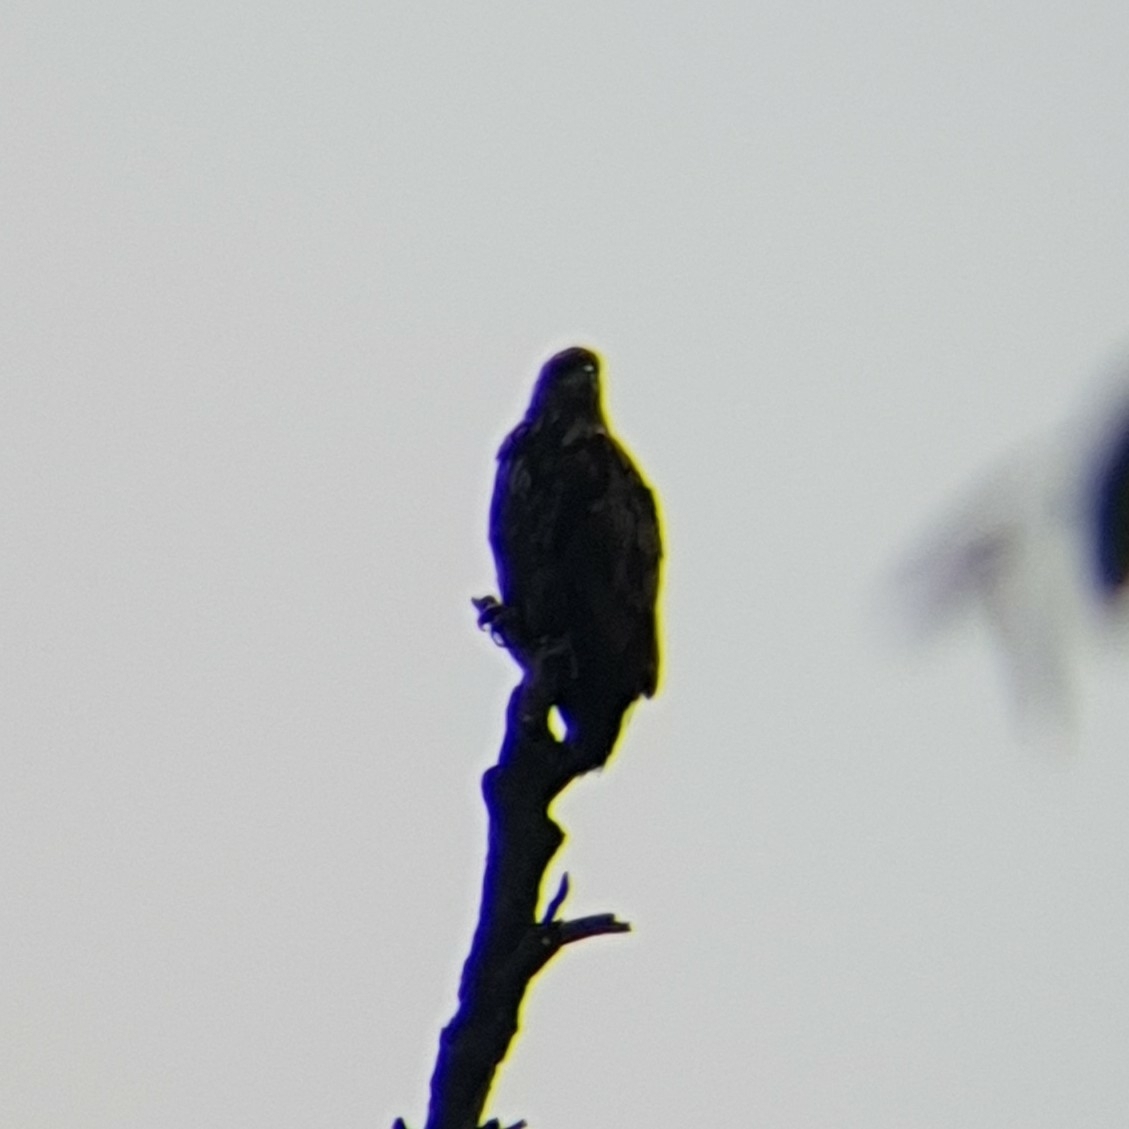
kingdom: Animalia
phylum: Chordata
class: Aves
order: Accipitriformes
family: Accipitridae
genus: Haliaeetus
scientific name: Haliaeetus albicilla
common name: White-tailed eagle
